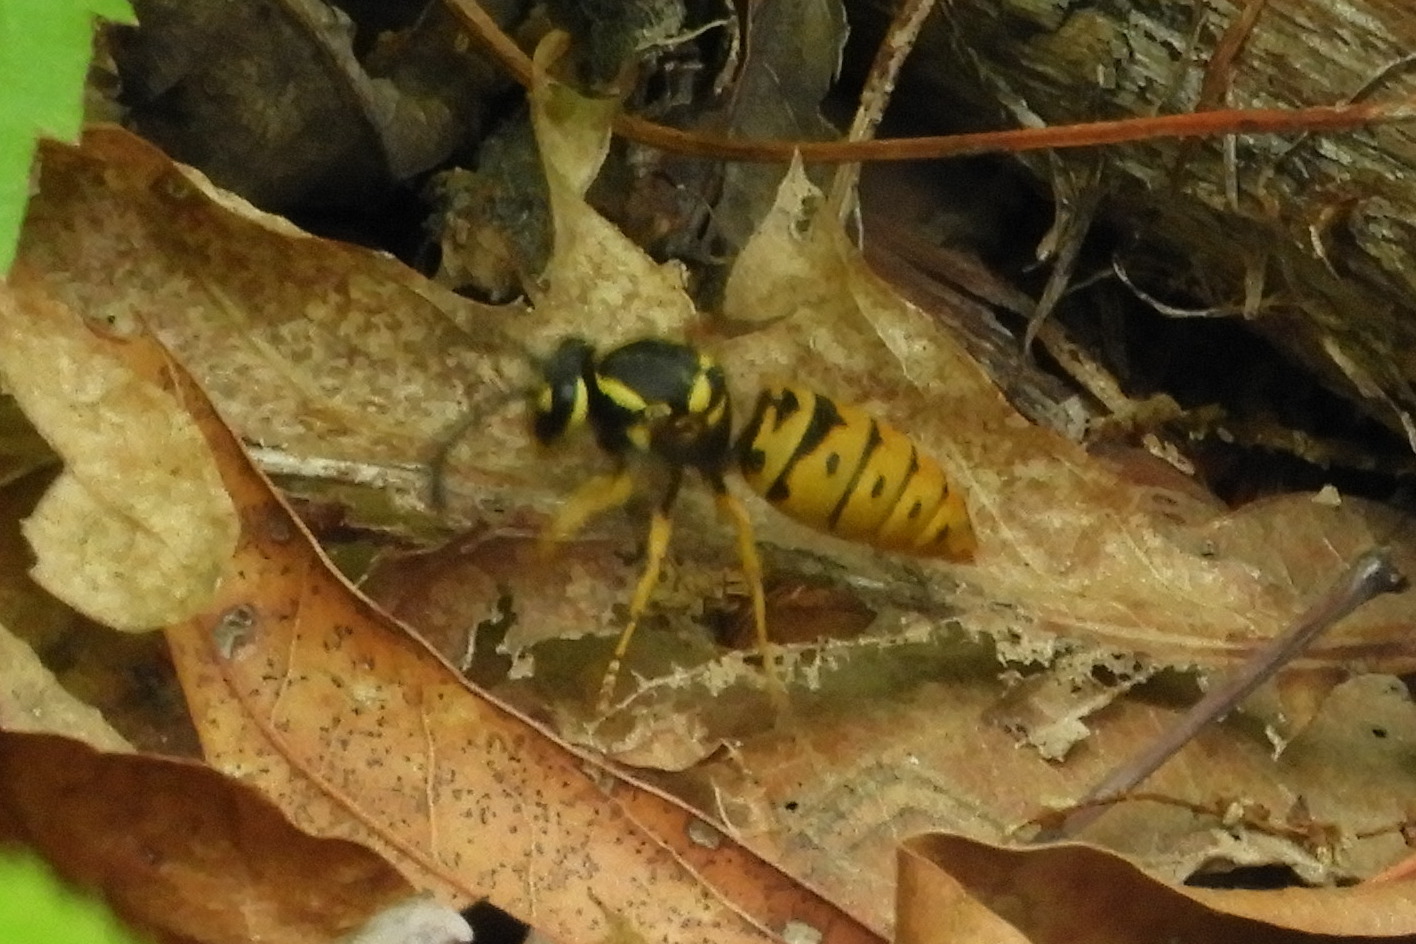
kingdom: Animalia
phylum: Arthropoda
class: Insecta
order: Hymenoptera
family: Vespidae
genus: Vespula
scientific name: Vespula maculifrons
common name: Eastern yellowjacket
